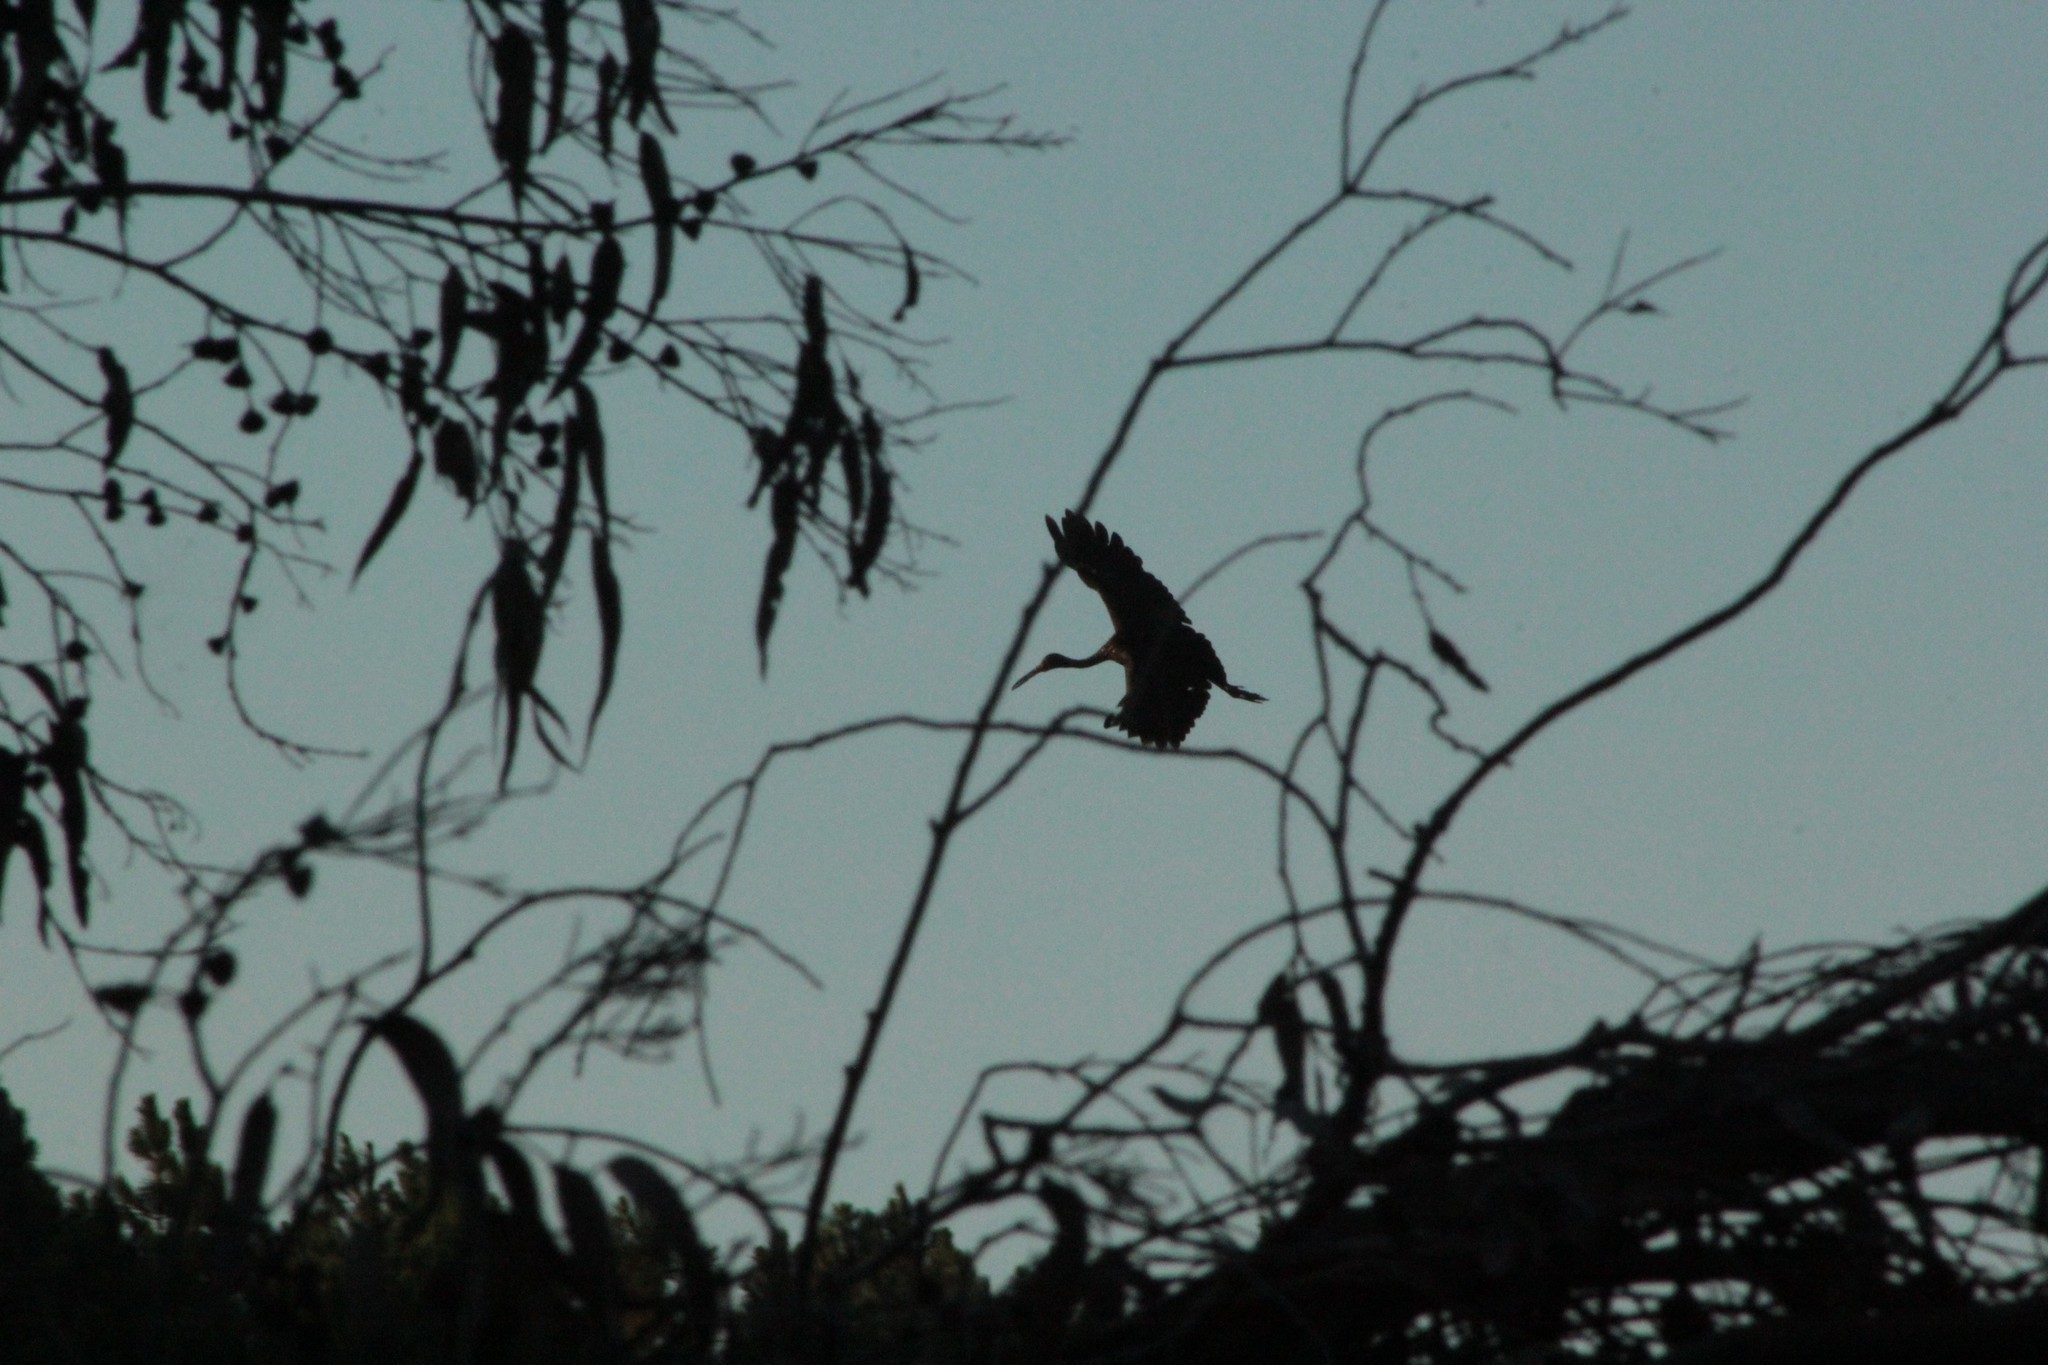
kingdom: Animalia
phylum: Chordata
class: Aves
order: Gruiformes
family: Aramidae
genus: Aramus
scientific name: Aramus guarauna
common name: Limpkin
